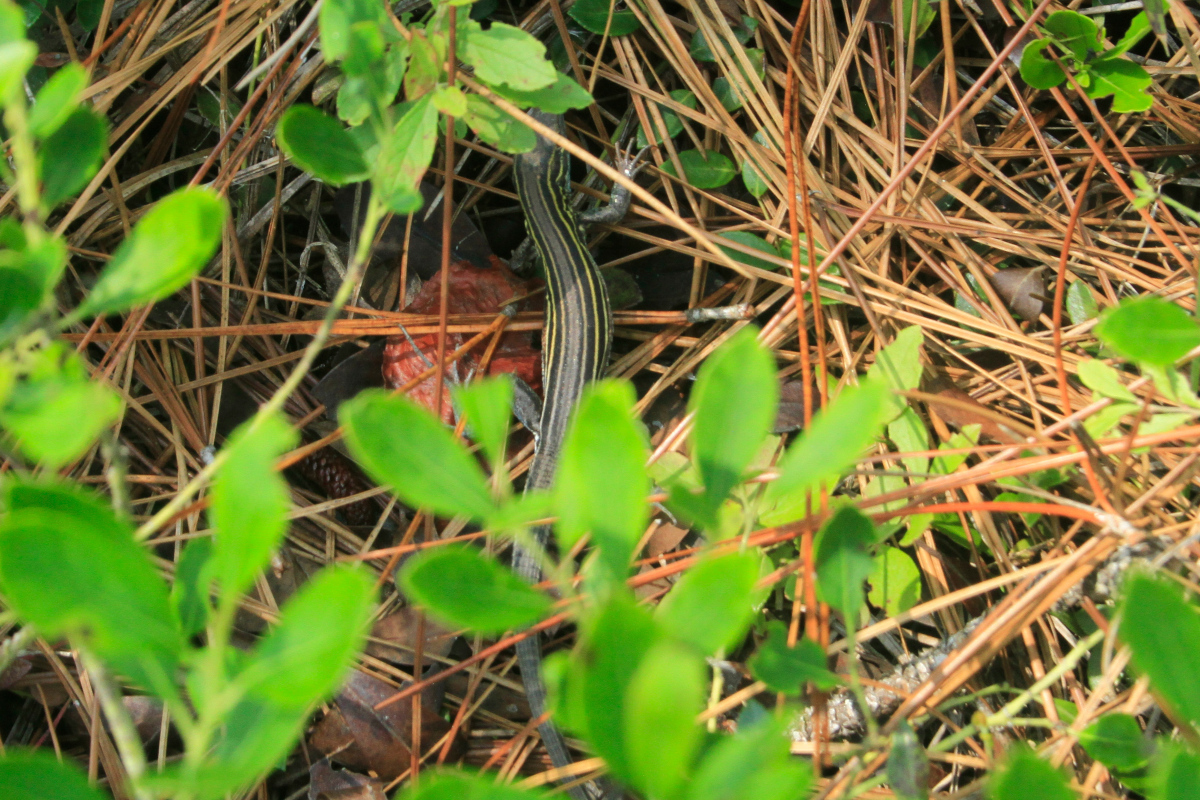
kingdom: Animalia
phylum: Chordata
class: Squamata
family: Teiidae
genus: Aspidoscelis
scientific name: Aspidoscelis sexlineatus
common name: Six-lined racerunner
